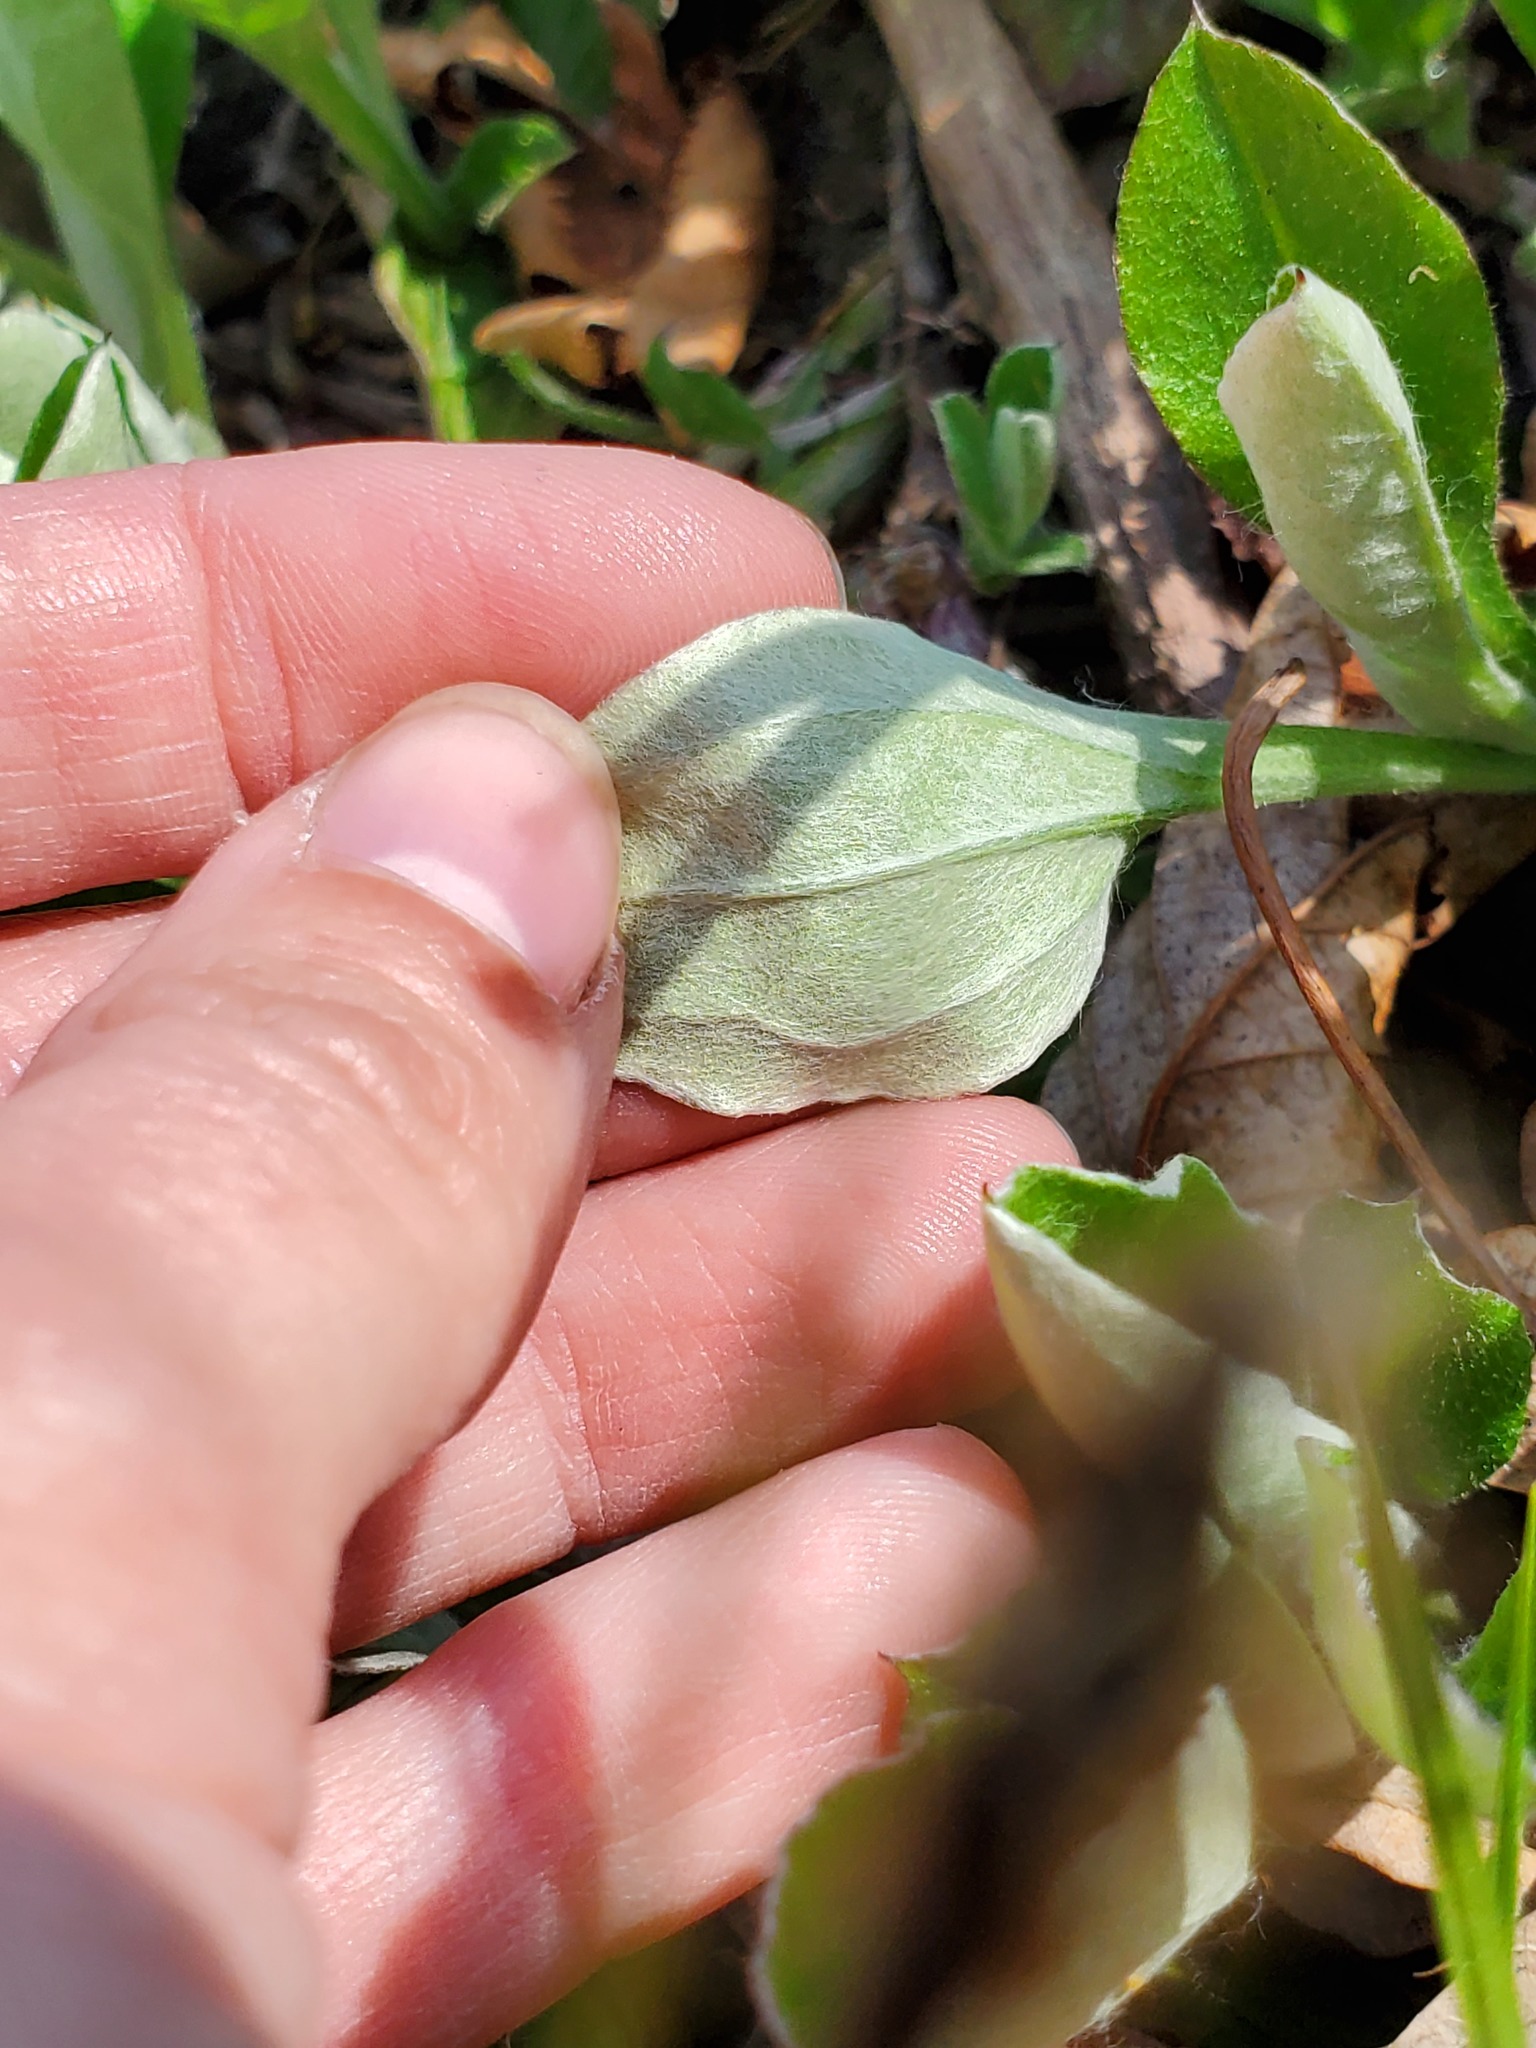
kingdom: Plantae
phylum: Tracheophyta
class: Magnoliopsida
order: Asterales
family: Asteraceae
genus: Antennaria
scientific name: Antennaria plantaginifolia
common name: Plantain-leaved pussytoes
